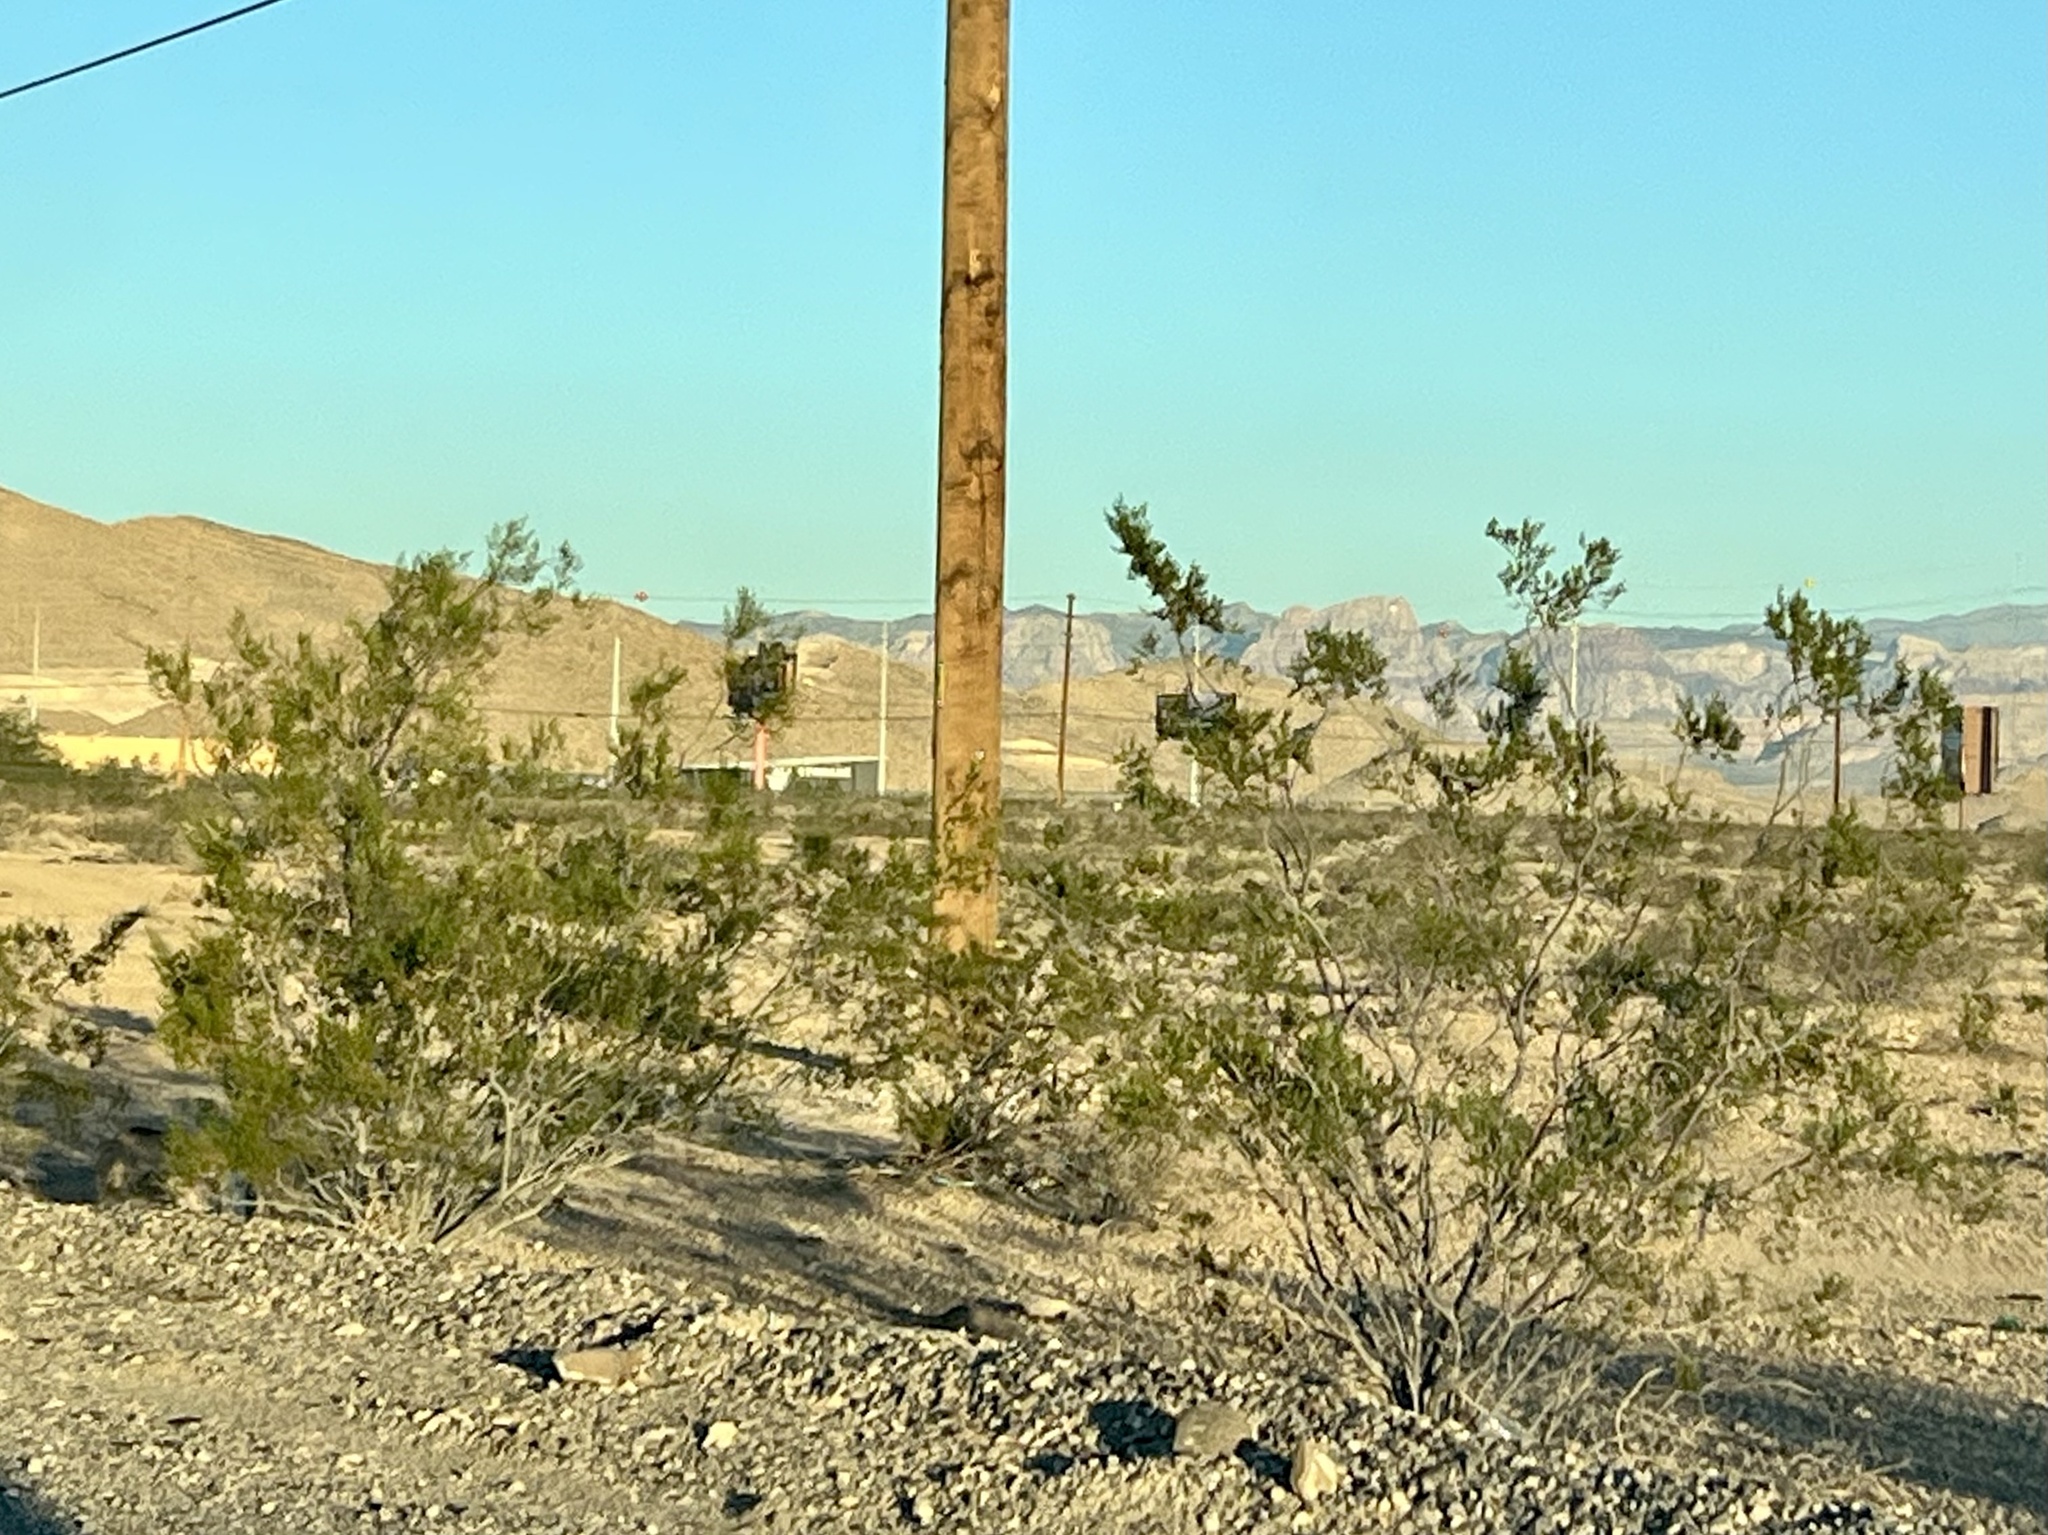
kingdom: Plantae
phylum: Tracheophyta
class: Magnoliopsida
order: Zygophyllales
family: Zygophyllaceae
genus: Larrea
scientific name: Larrea tridentata
